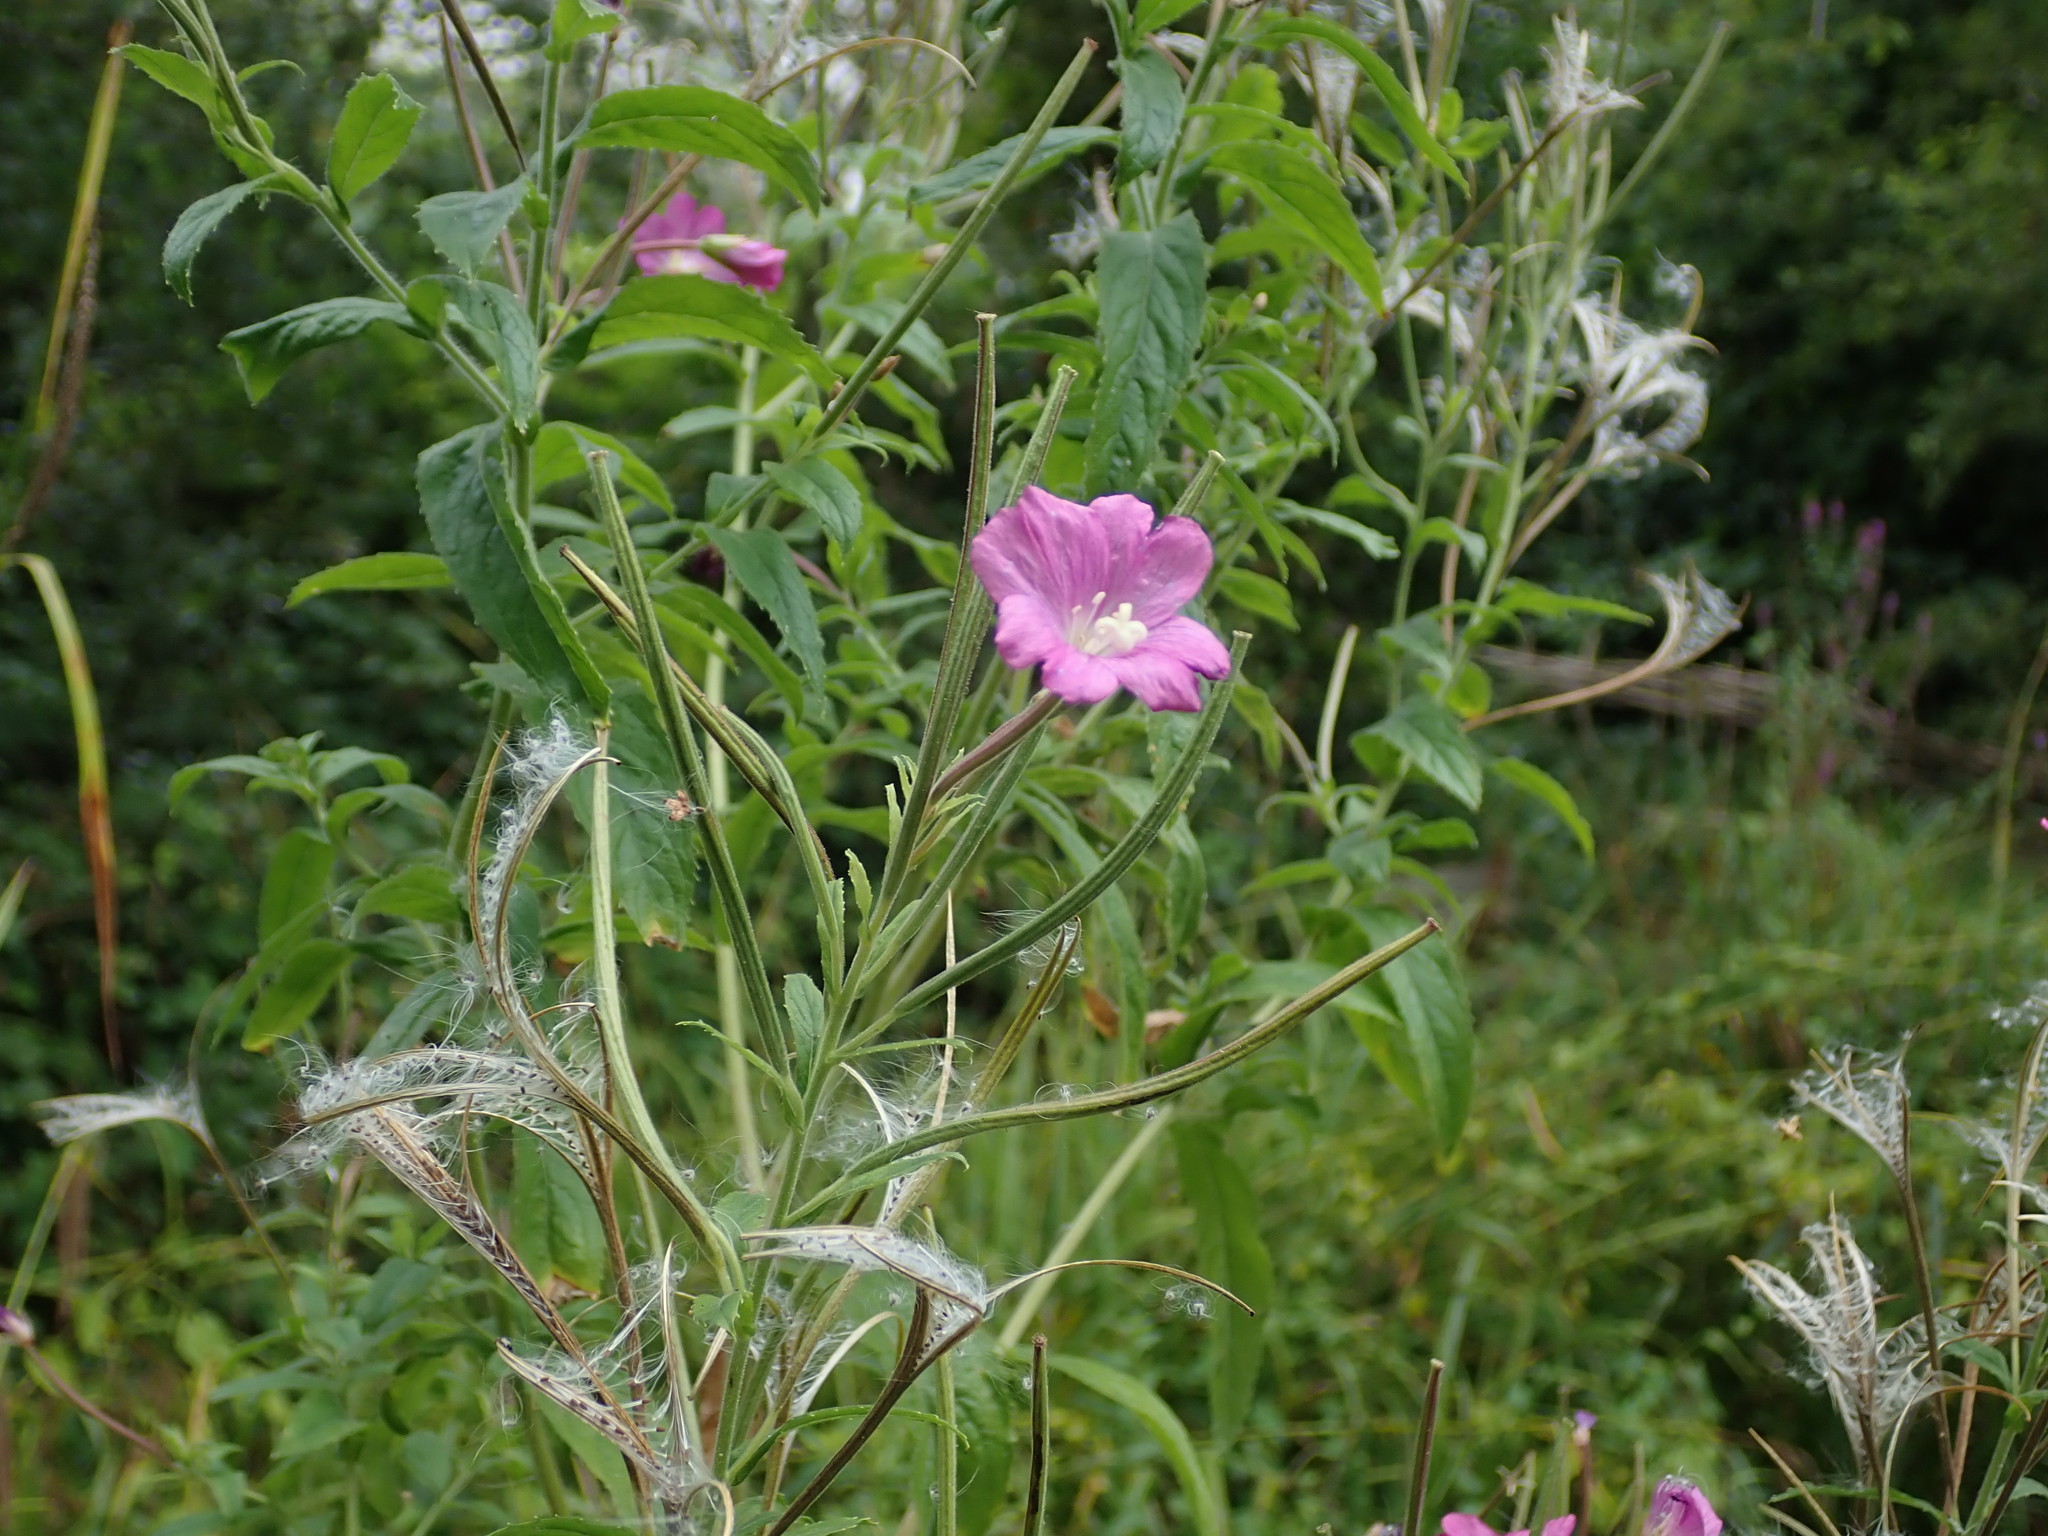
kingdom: Plantae
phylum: Tracheophyta
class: Magnoliopsida
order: Myrtales
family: Onagraceae
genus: Epilobium
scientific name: Epilobium hirsutum
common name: Great willowherb
